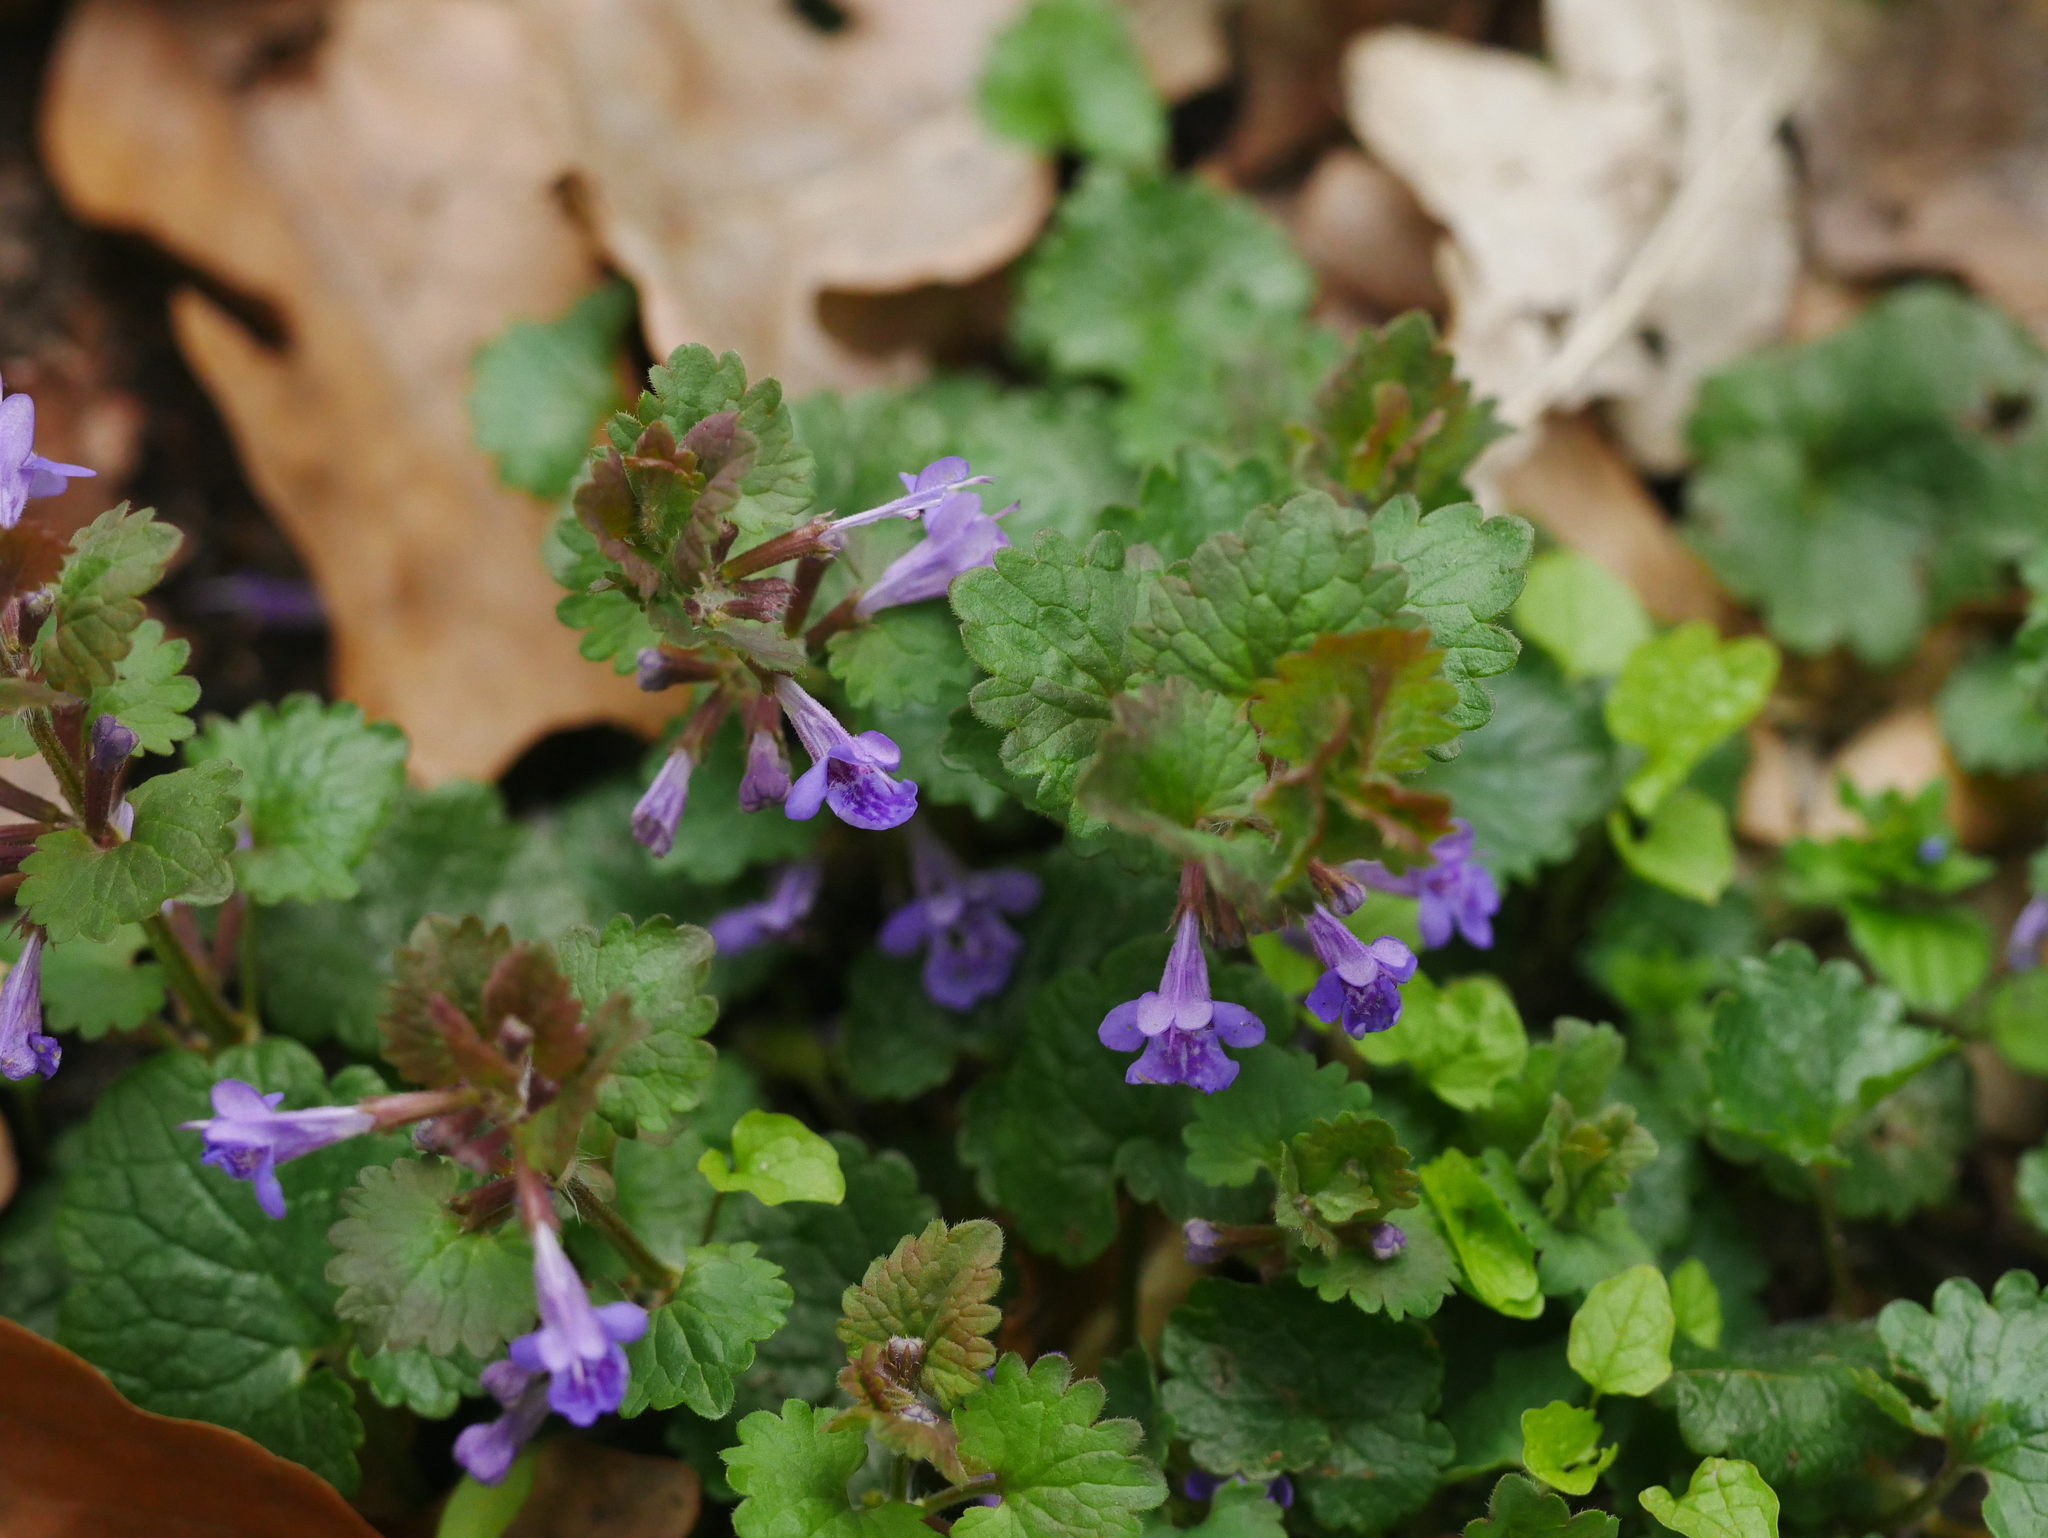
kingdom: Plantae
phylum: Tracheophyta
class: Magnoliopsida
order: Lamiales
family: Lamiaceae
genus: Glechoma
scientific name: Glechoma hederacea
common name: Ground ivy
